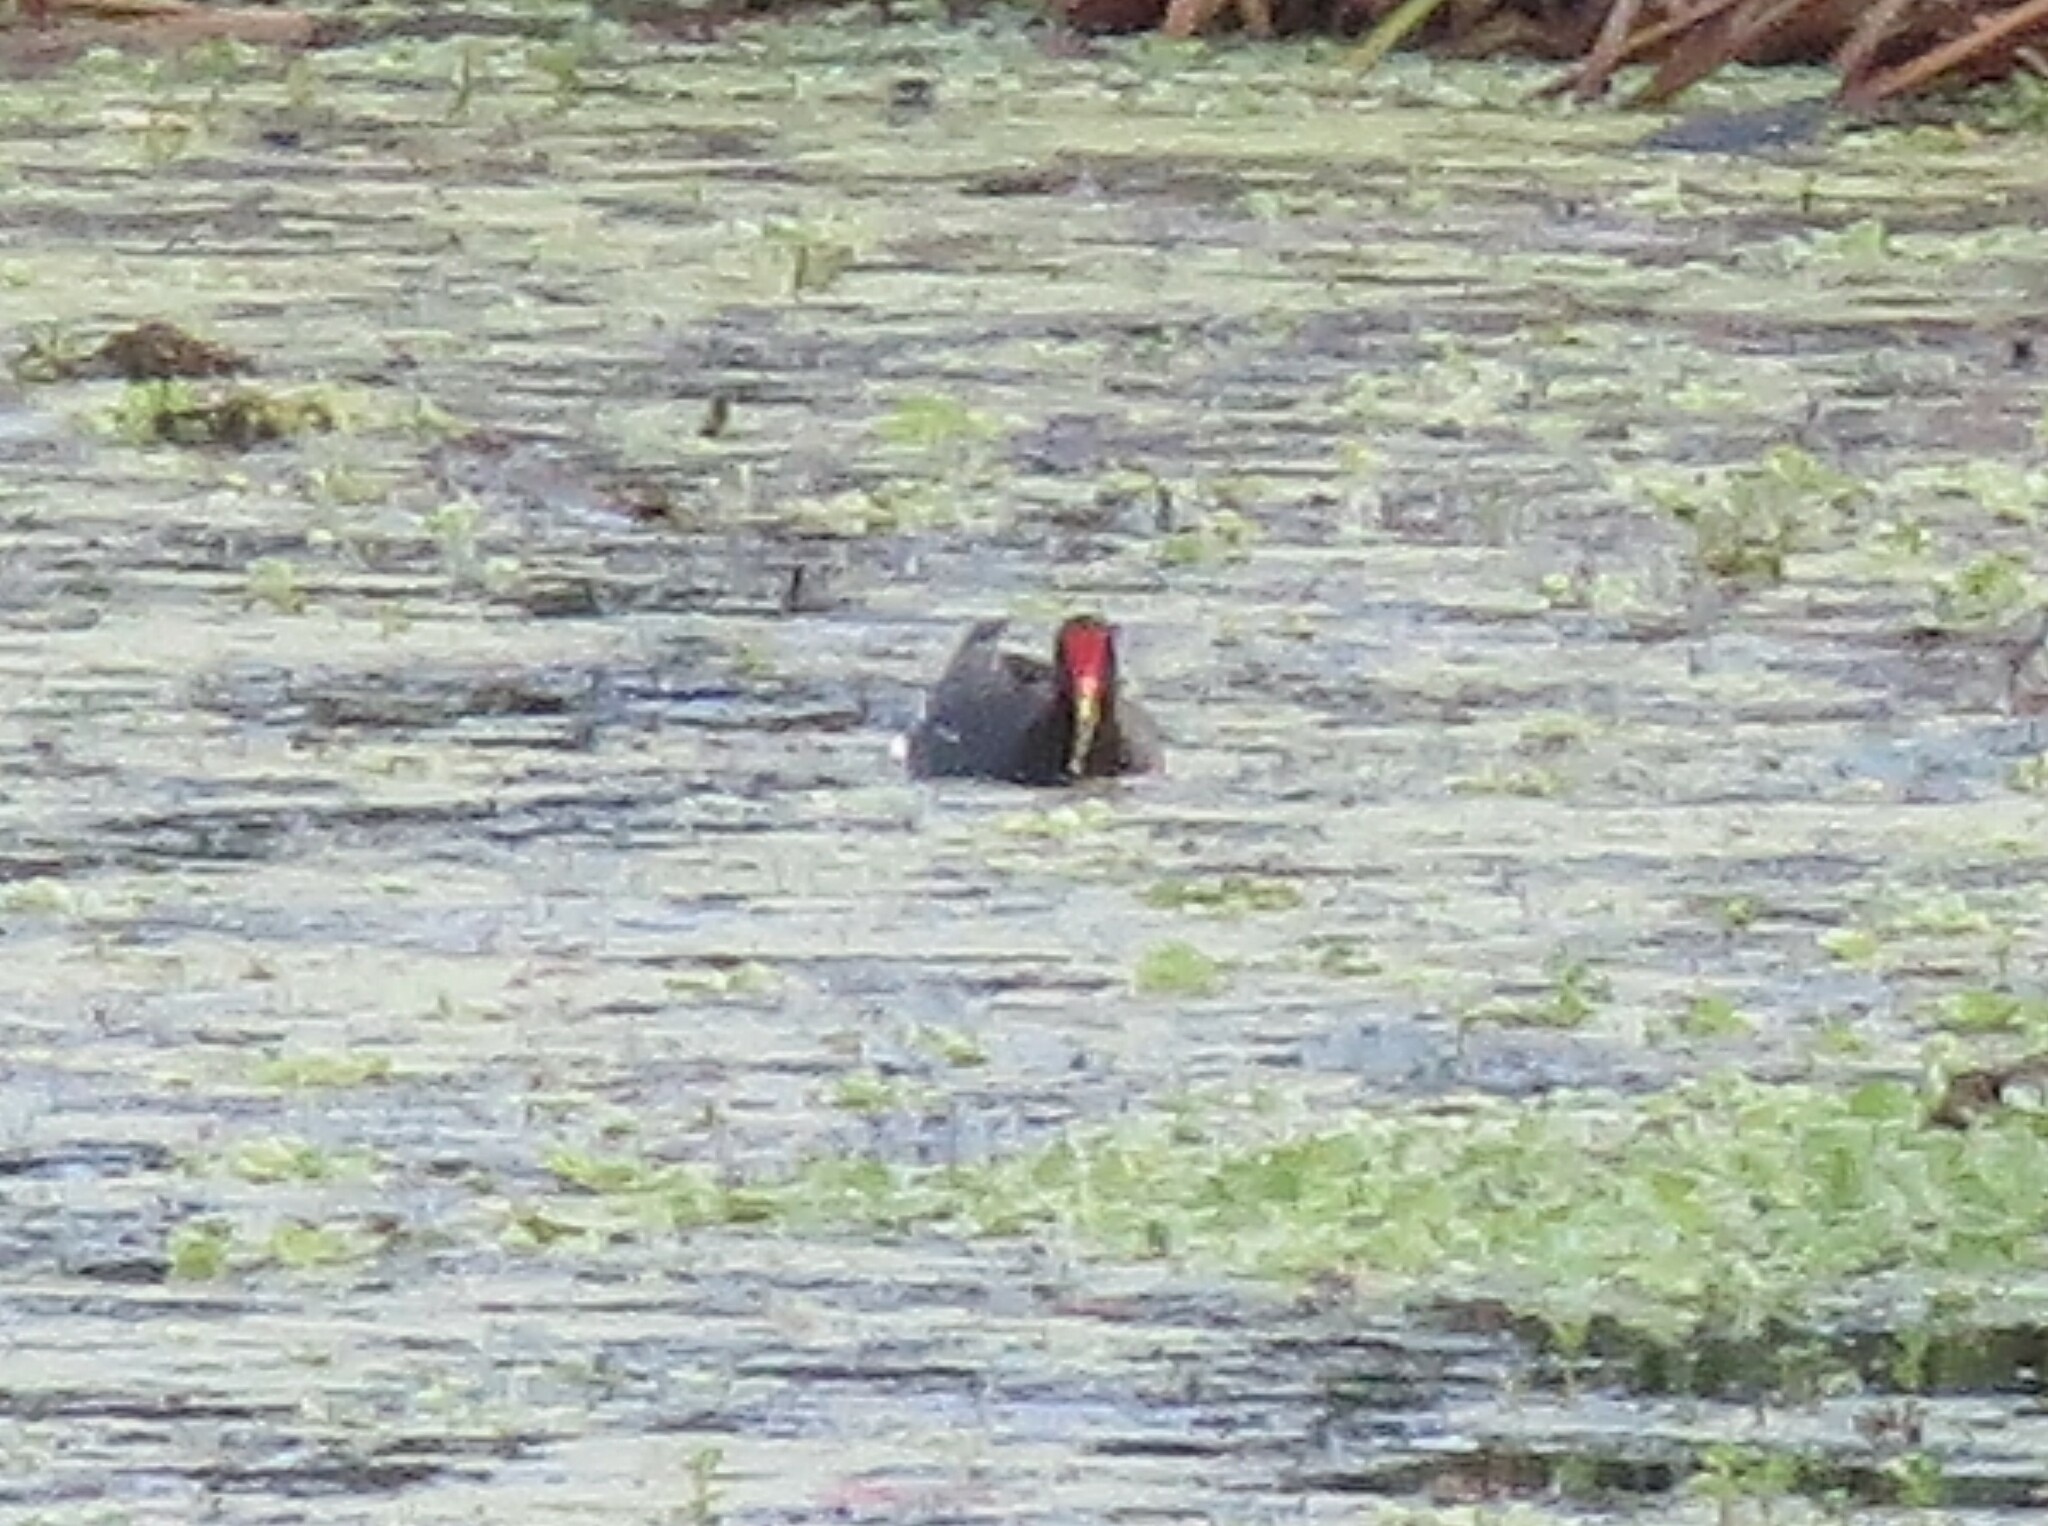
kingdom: Animalia
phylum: Chordata
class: Aves
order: Gruiformes
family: Rallidae
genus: Gallinula
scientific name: Gallinula chloropus
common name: Common moorhen
